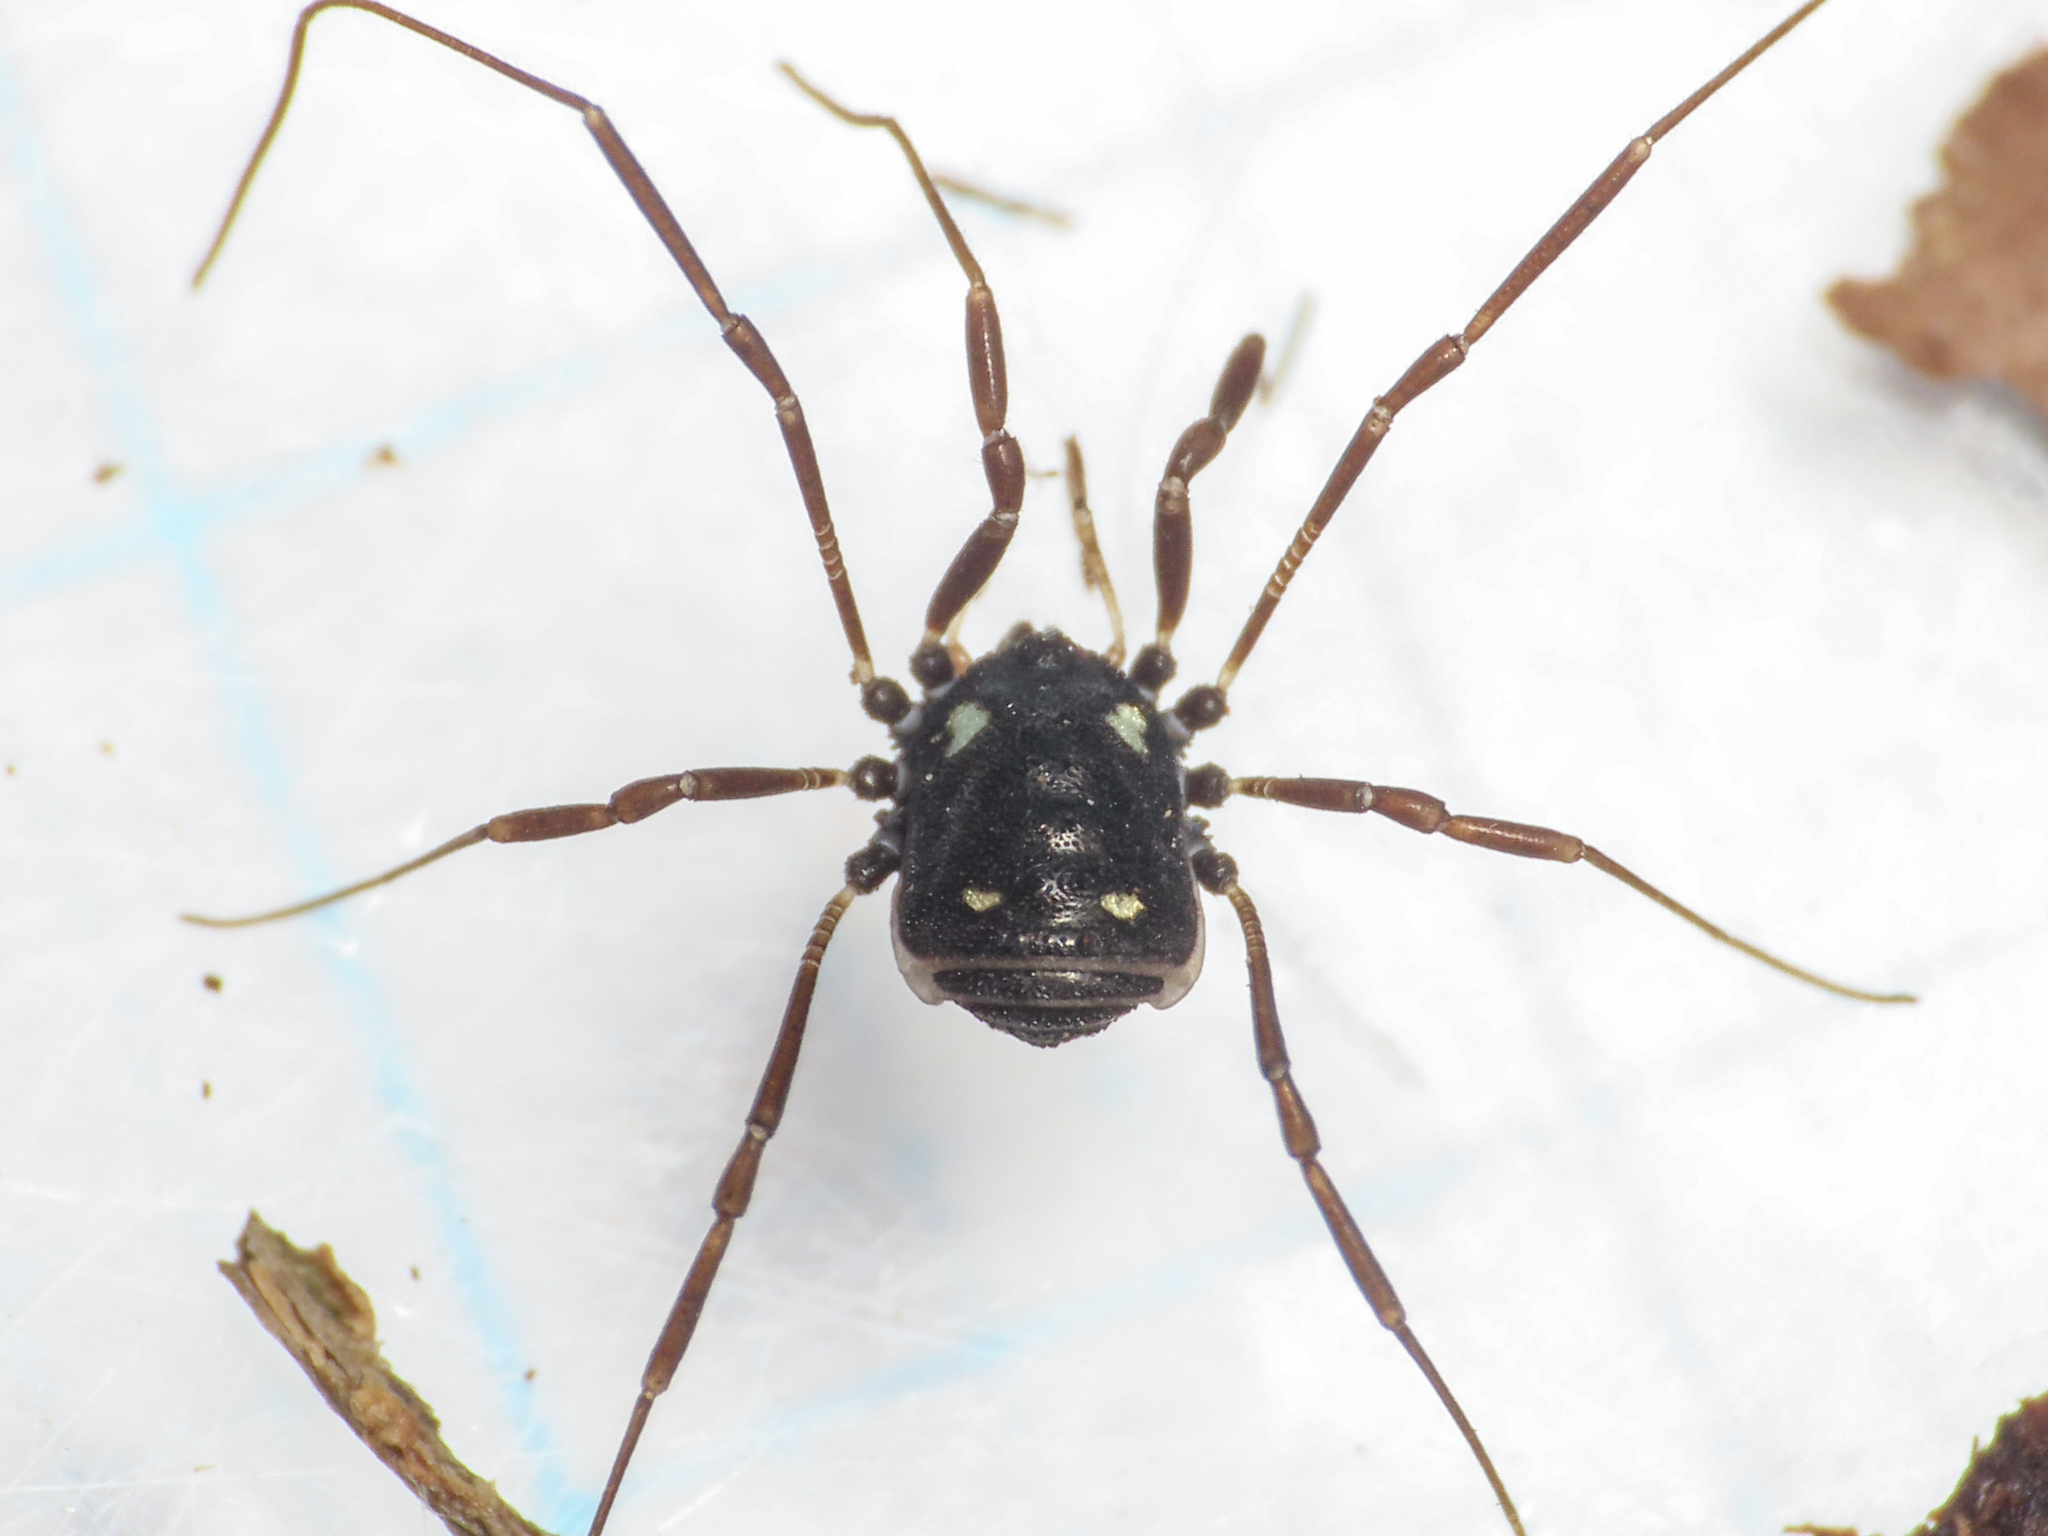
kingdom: Animalia
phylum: Arthropoda
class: Arachnida
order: Opiliones
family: Nemastomatidae
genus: Histricostoma
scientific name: Histricostoma argenteolunulatum
